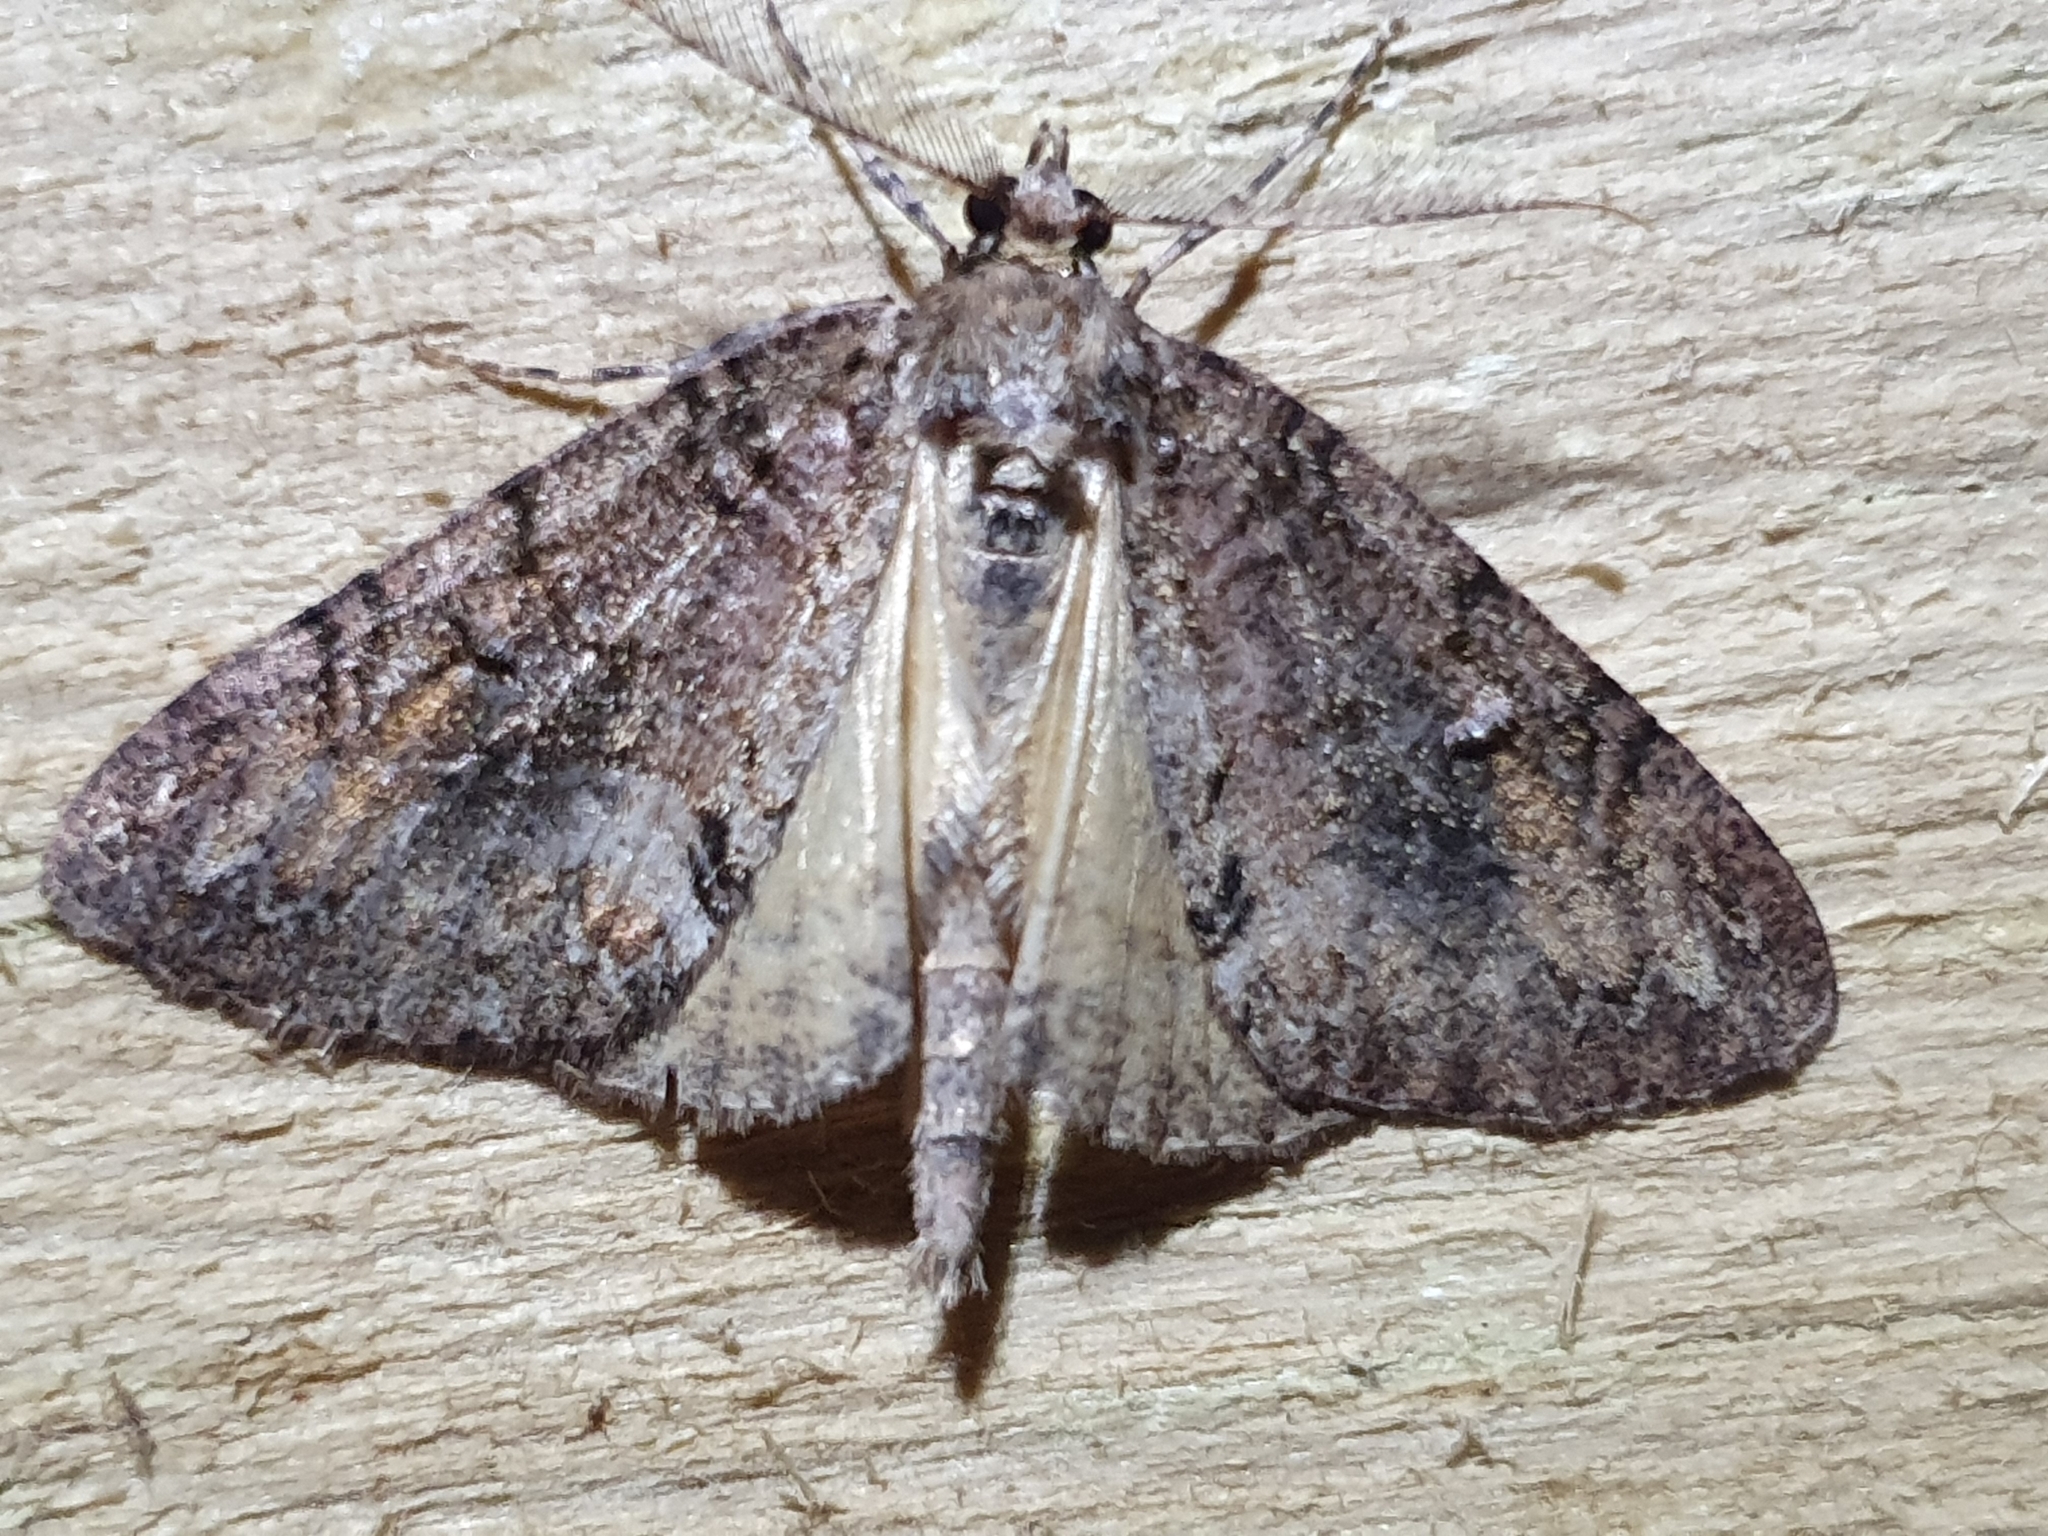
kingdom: Animalia
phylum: Arthropoda
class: Insecta
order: Lepidoptera
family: Geometridae
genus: Pseudocoremia
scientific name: Pseudocoremia suavis
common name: Common forest looper
